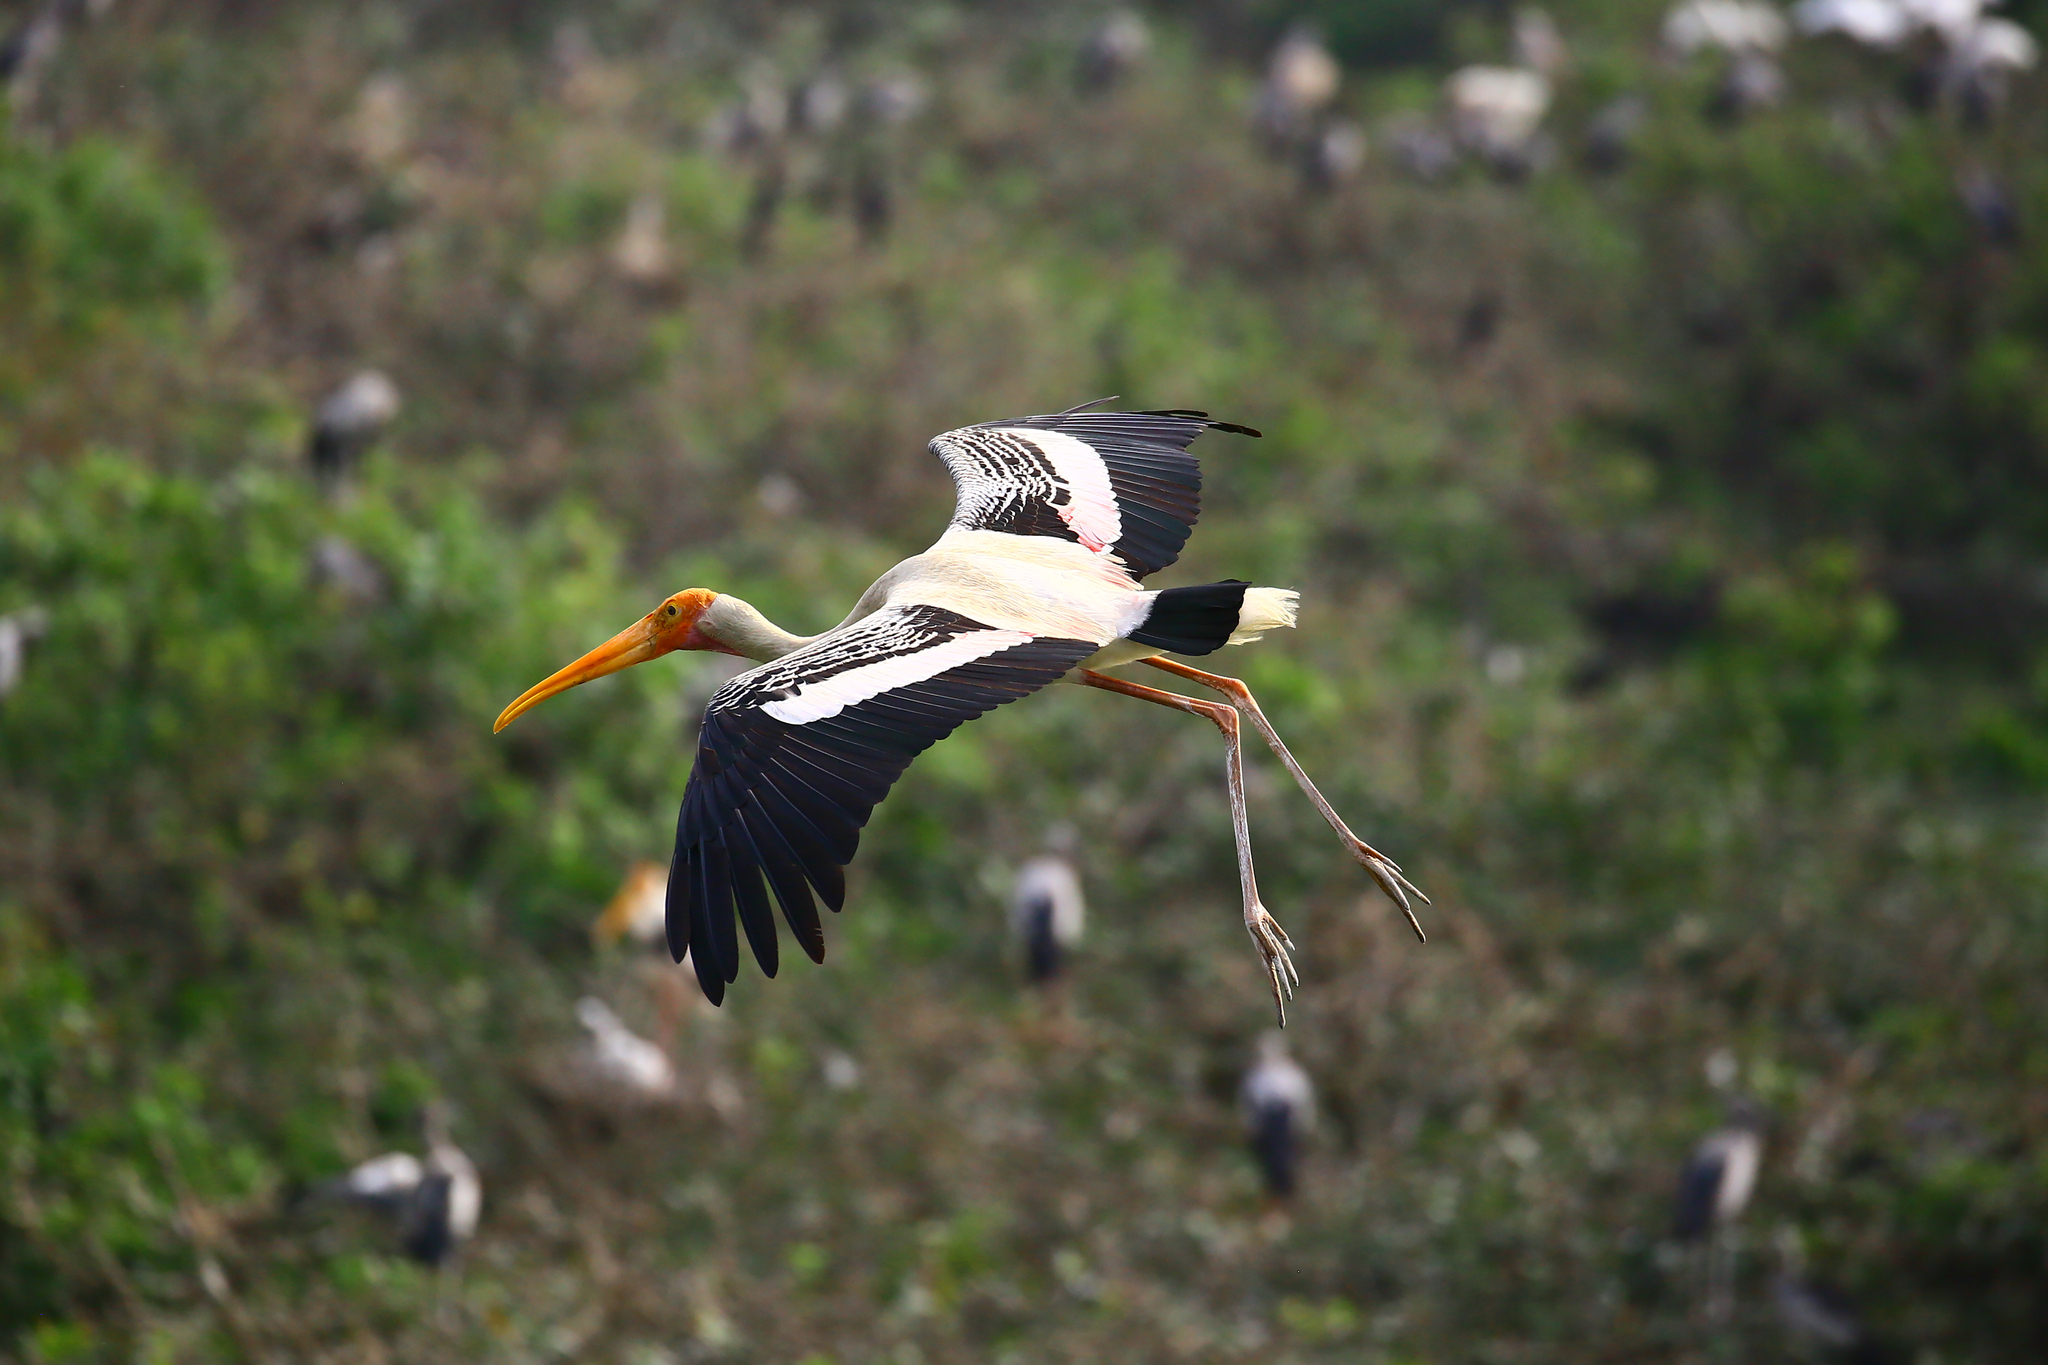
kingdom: Animalia
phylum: Chordata
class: Aves
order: Ciconiiformes
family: Ciconiidae
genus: Mycteria
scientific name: Mycteria leucocephala
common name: Painted stork
